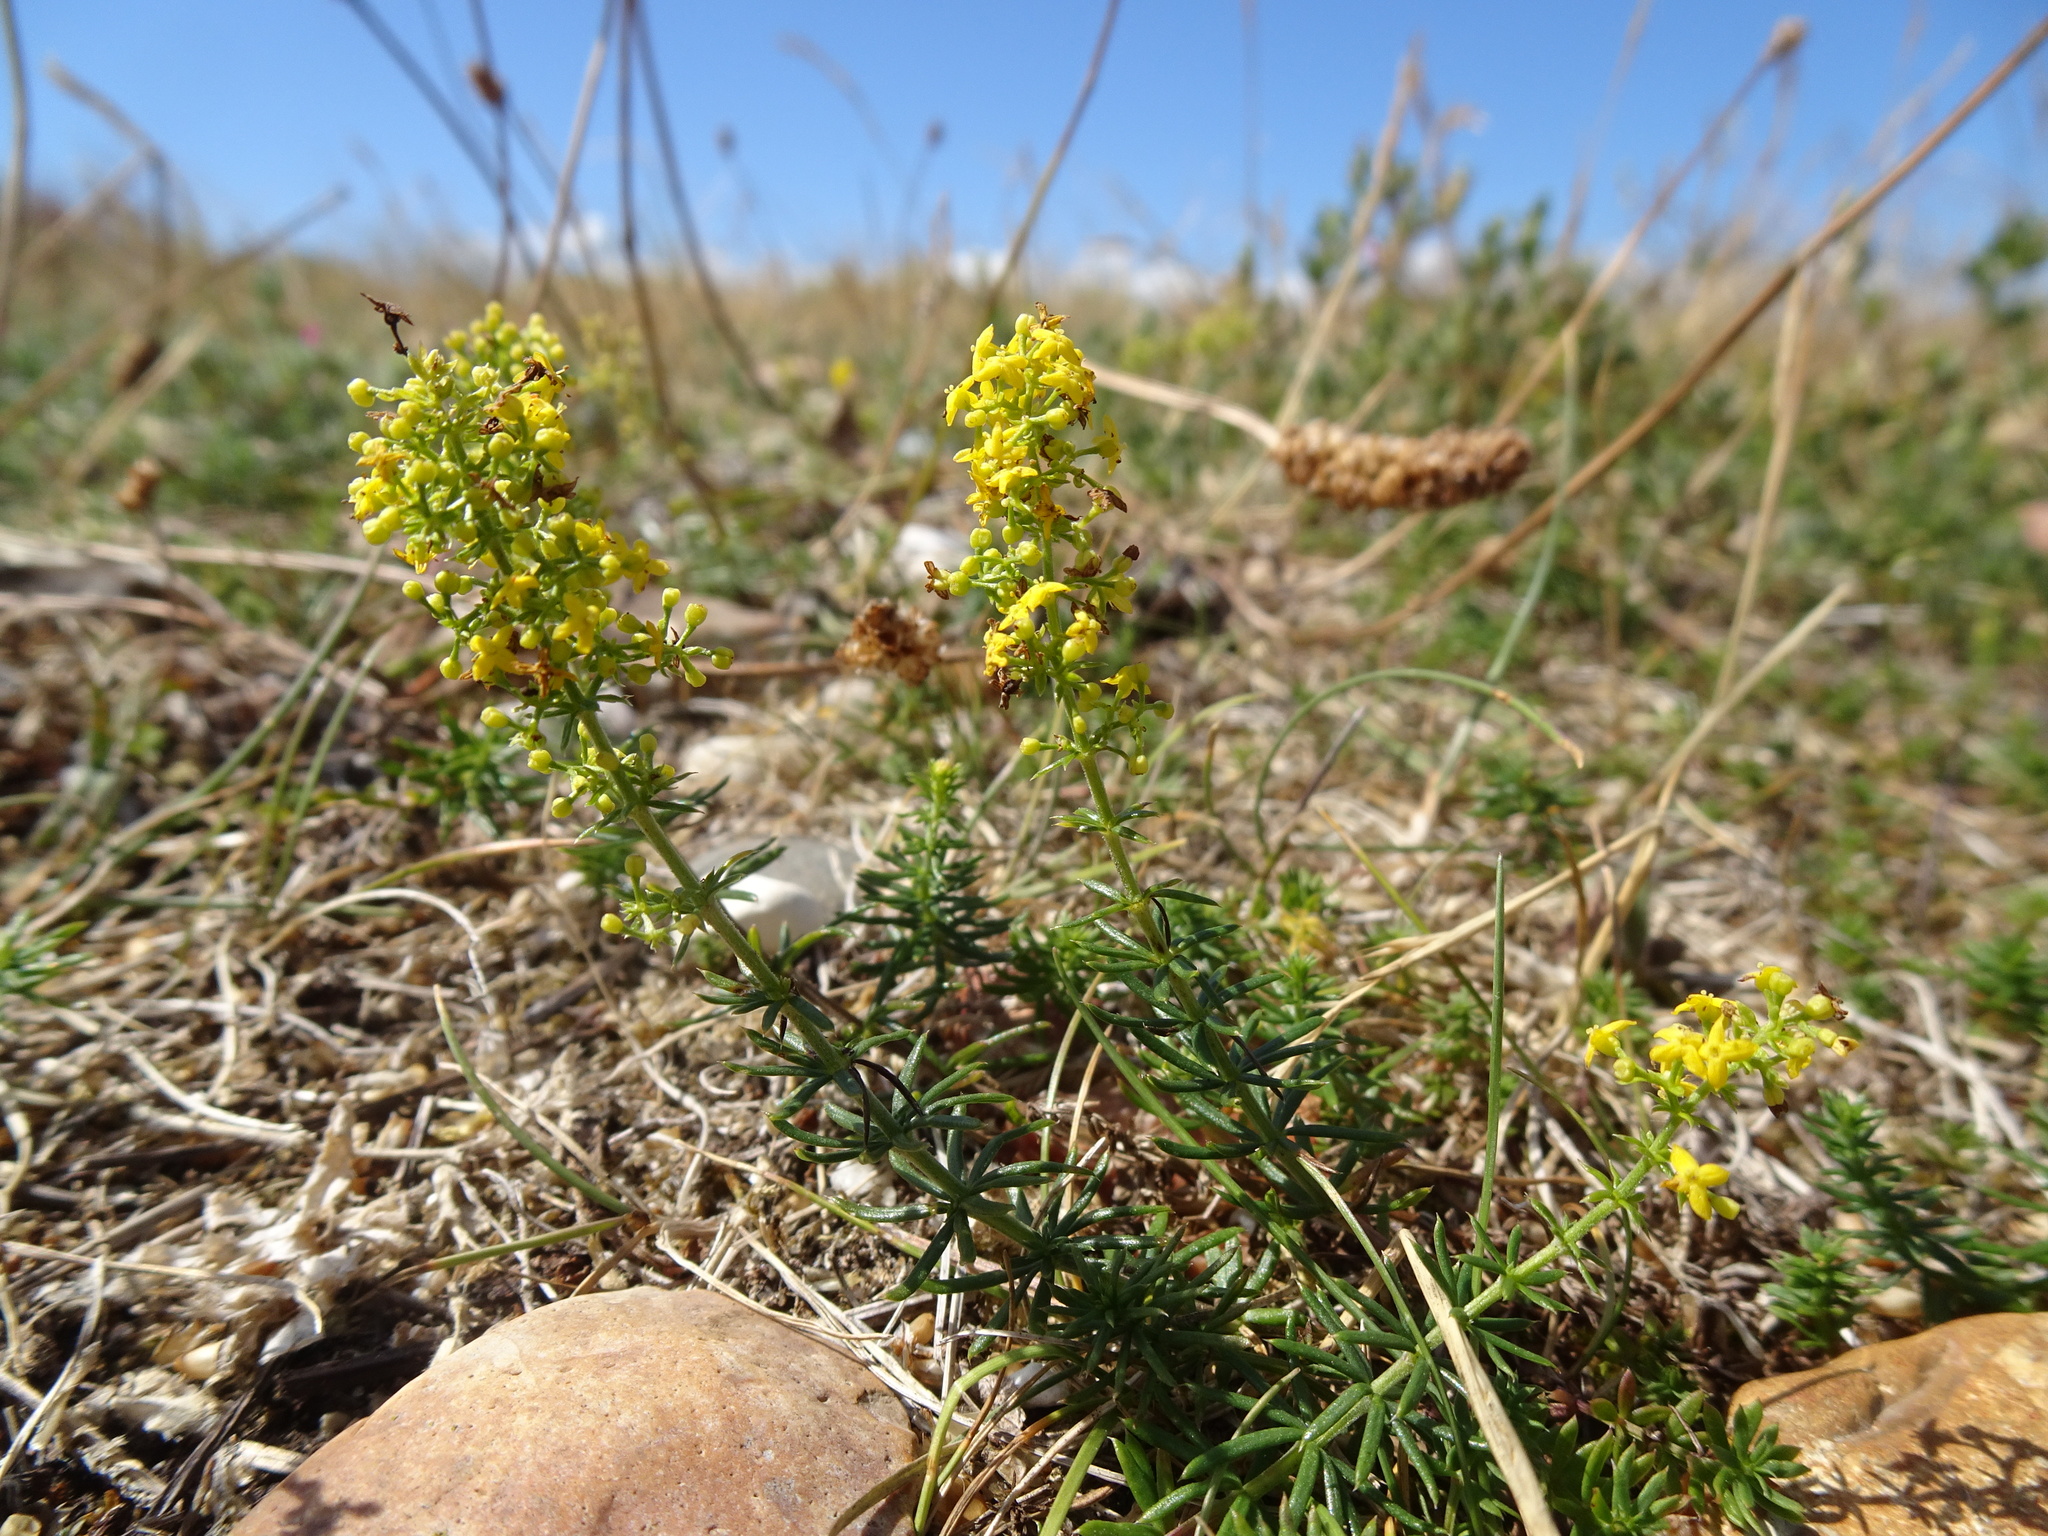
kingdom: Plantae
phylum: Tracheophyta
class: Magnoliopsida
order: Gentianales
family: Rubiaceae
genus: Galium
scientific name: Galium verum
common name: Lady's bedstraw
